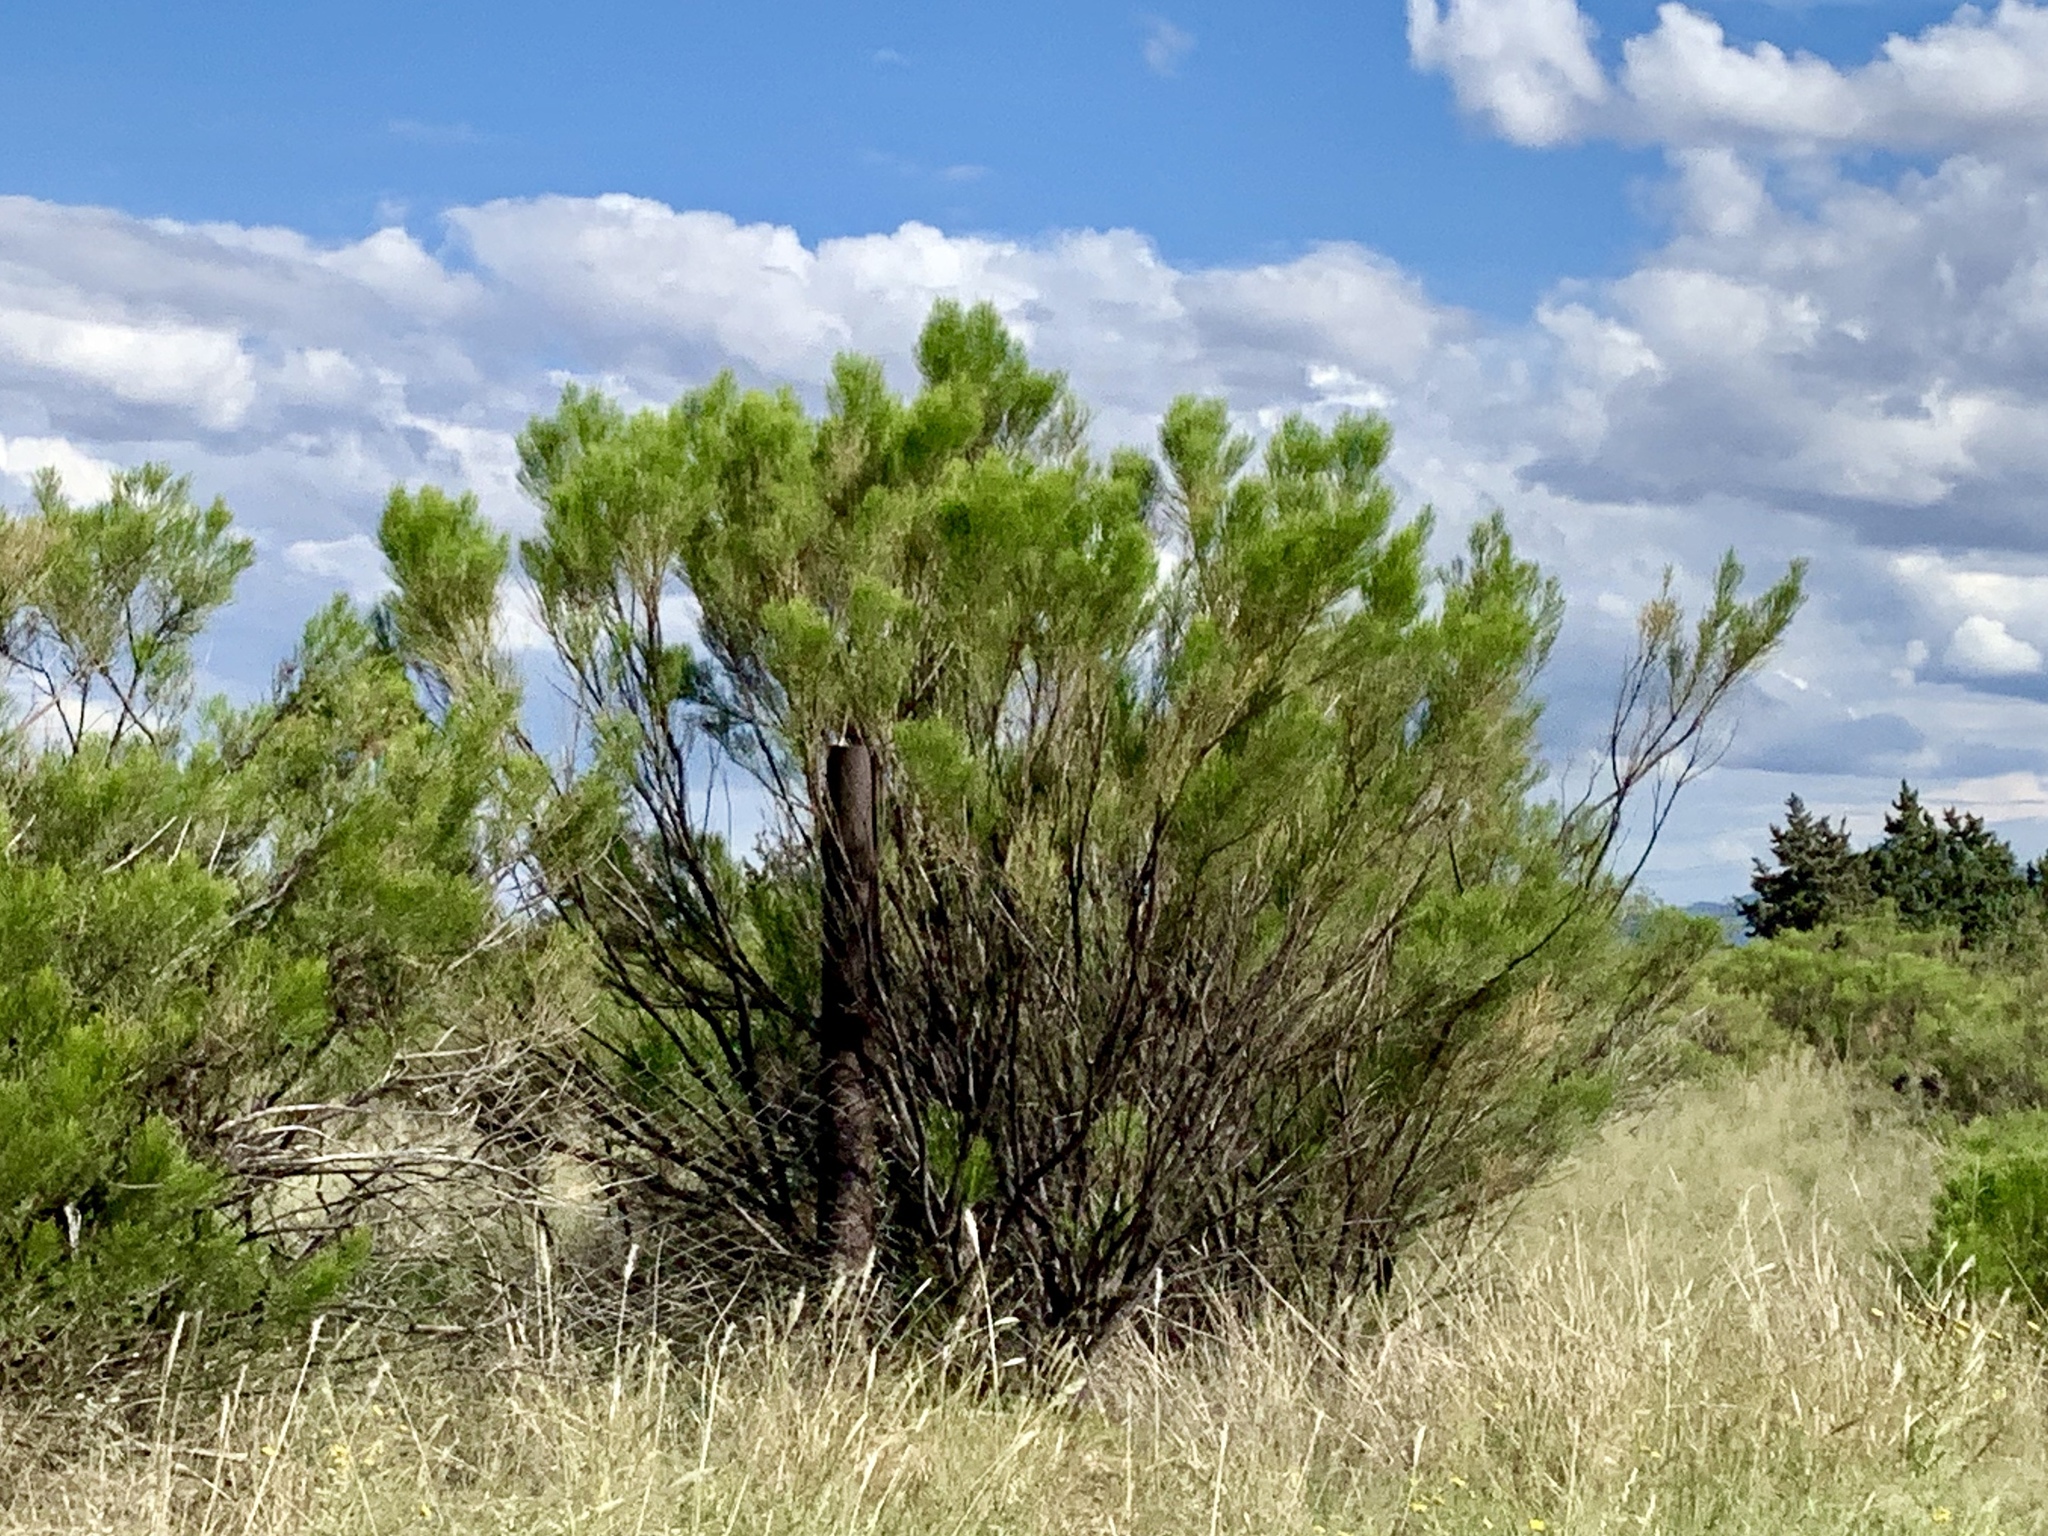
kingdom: Plantae
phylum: Tracheophyta
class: Magnoliopsida
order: Asterales
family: Asteraceae
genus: Baccharis
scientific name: Baccharis sarothroides
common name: Desert-broom
